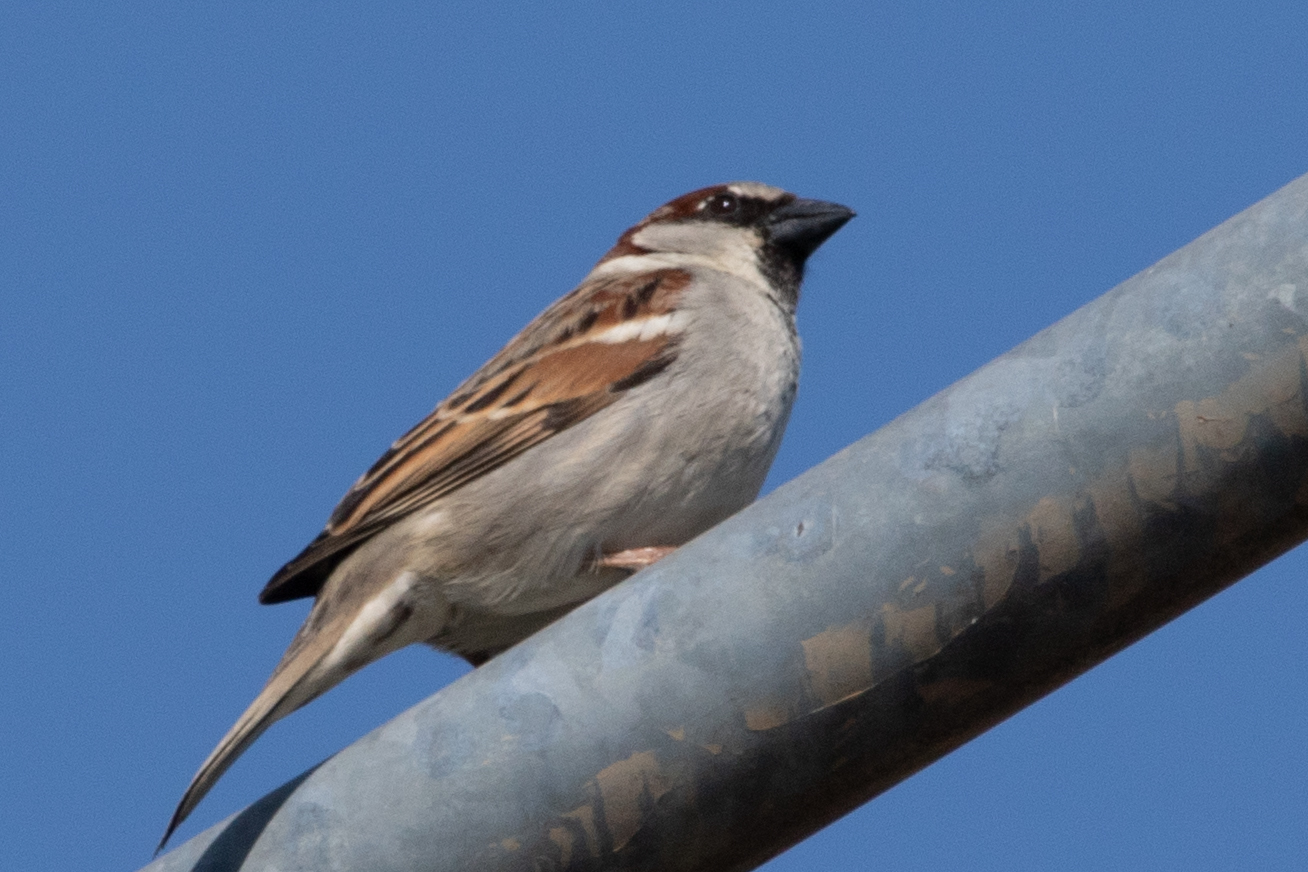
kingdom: Animalia
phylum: Chordata
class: Aves
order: Passeriformes
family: Passeridae
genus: Passer
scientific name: Passer domesticus
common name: House sparrow
